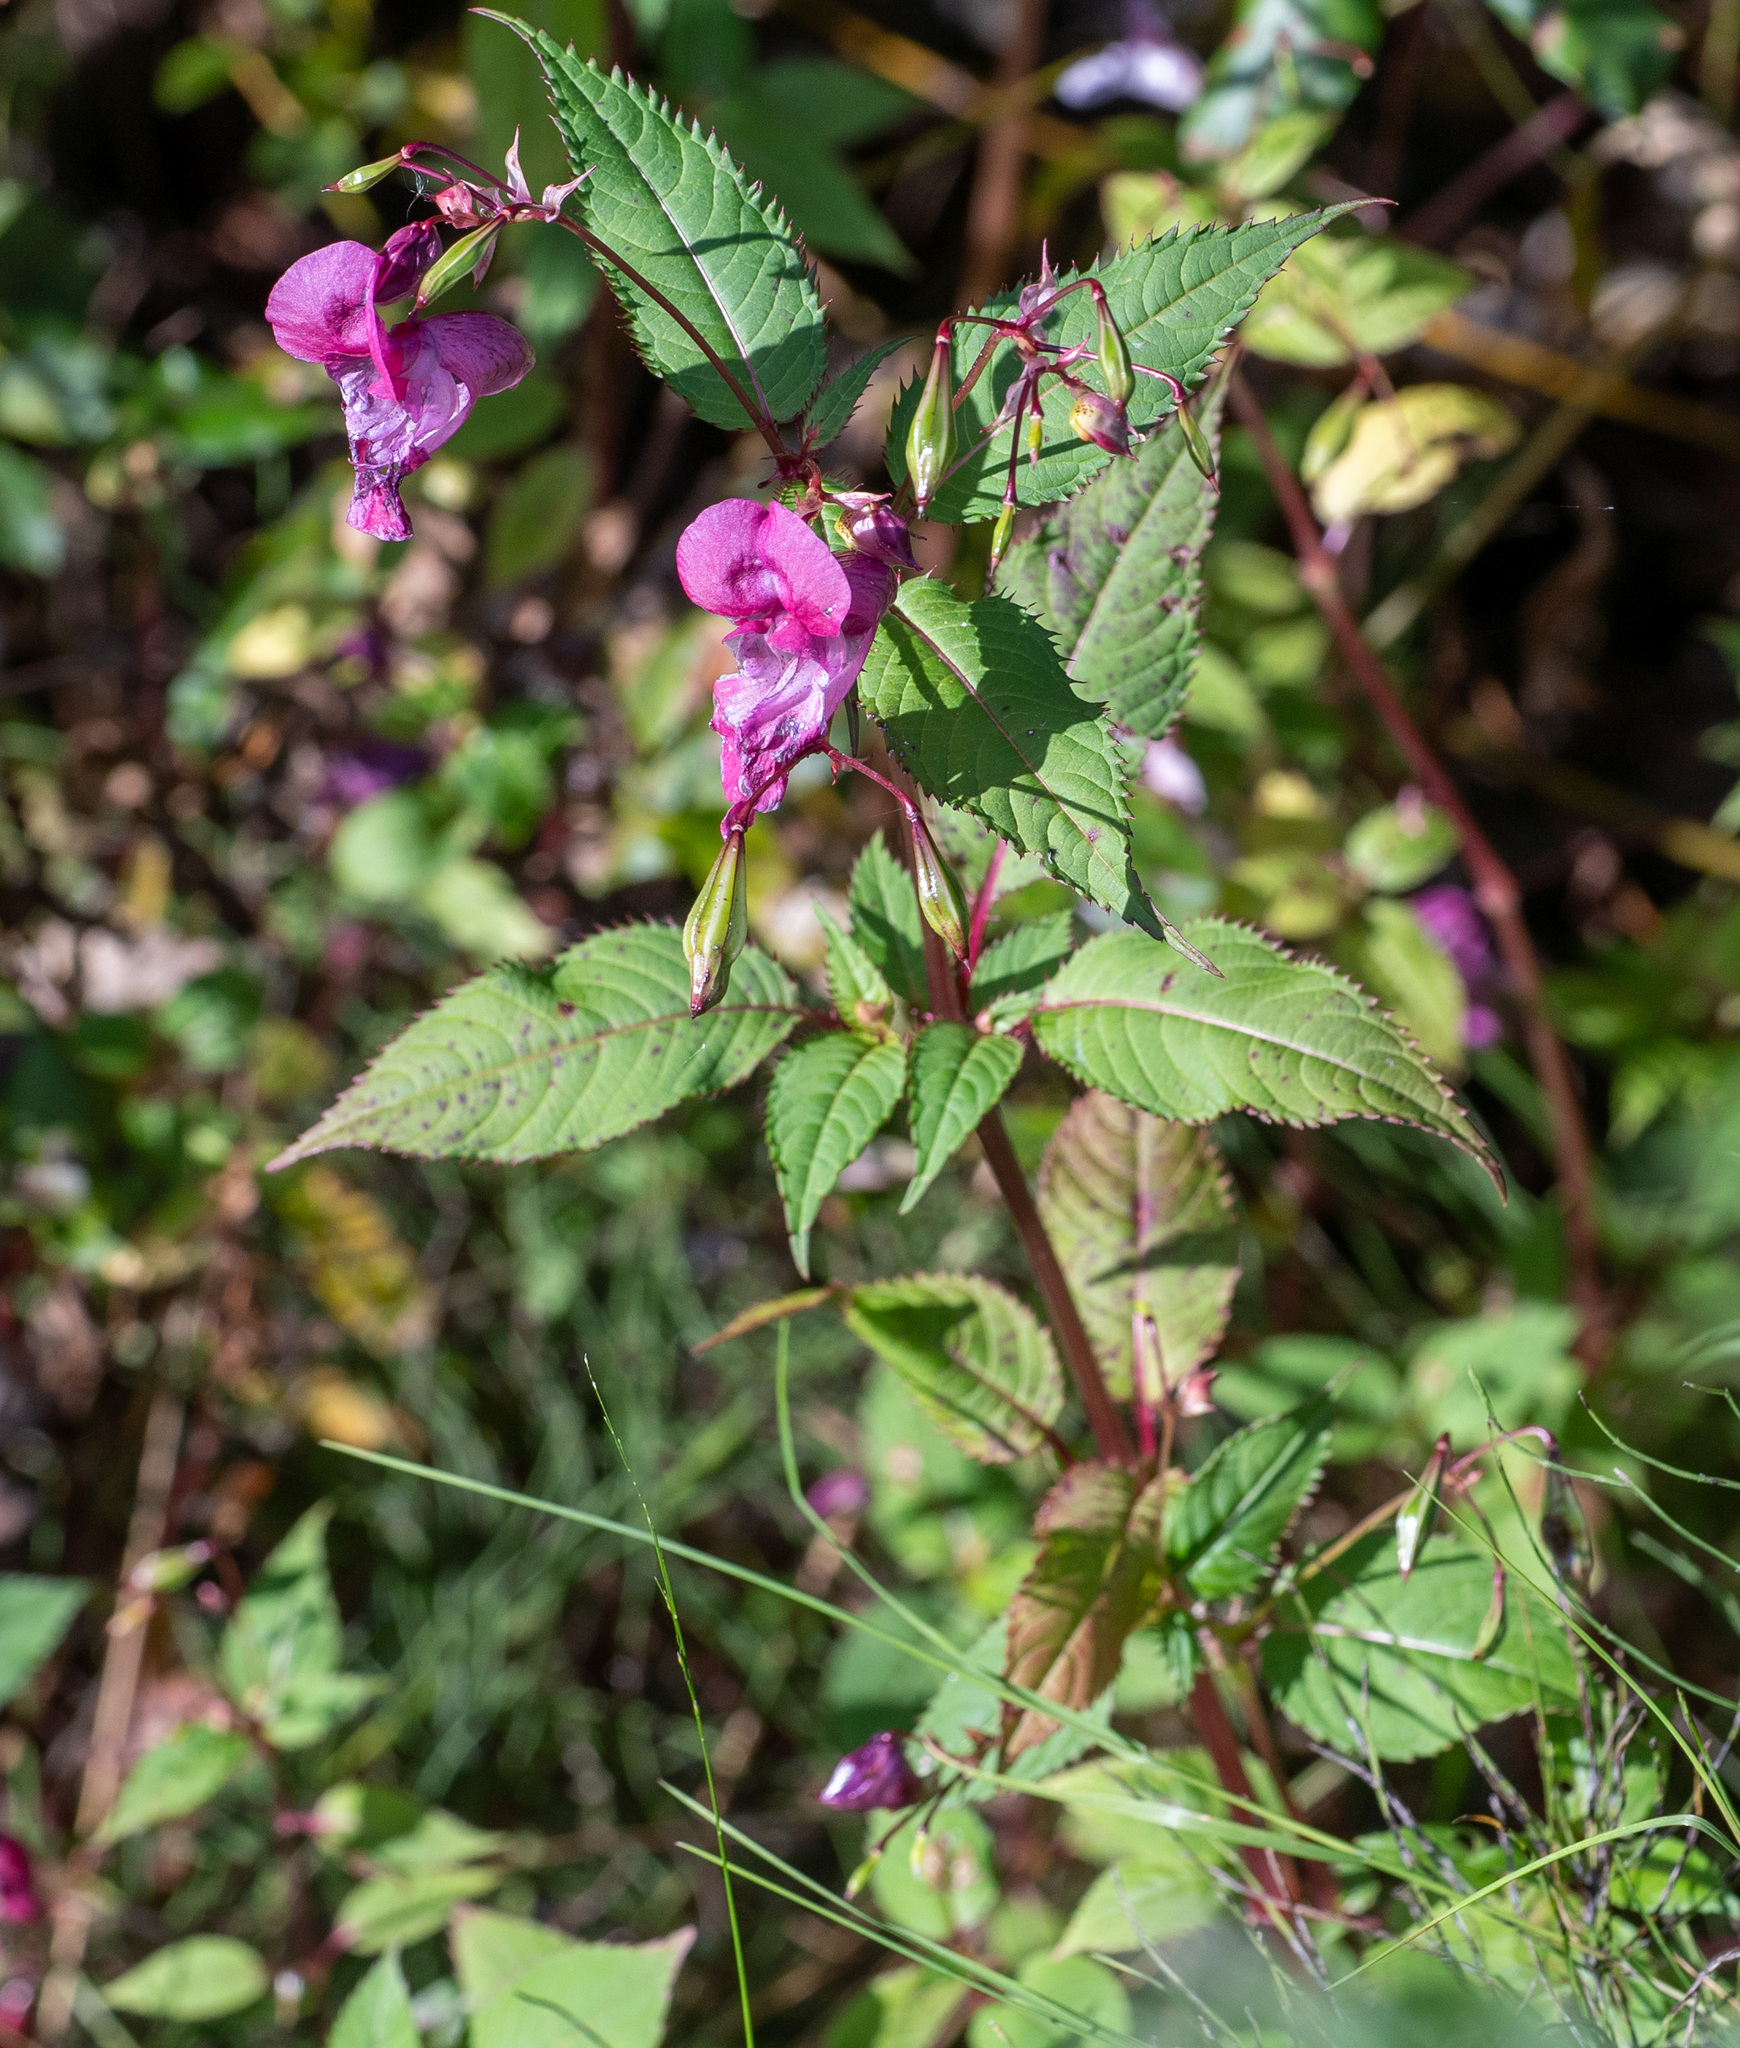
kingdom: Plantae
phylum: Tracheophyta
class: Magnoliopsida
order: Ericales
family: Balsaminaceae
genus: Impatiens
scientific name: Impatiens glandulifera
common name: Himalayan balsam
